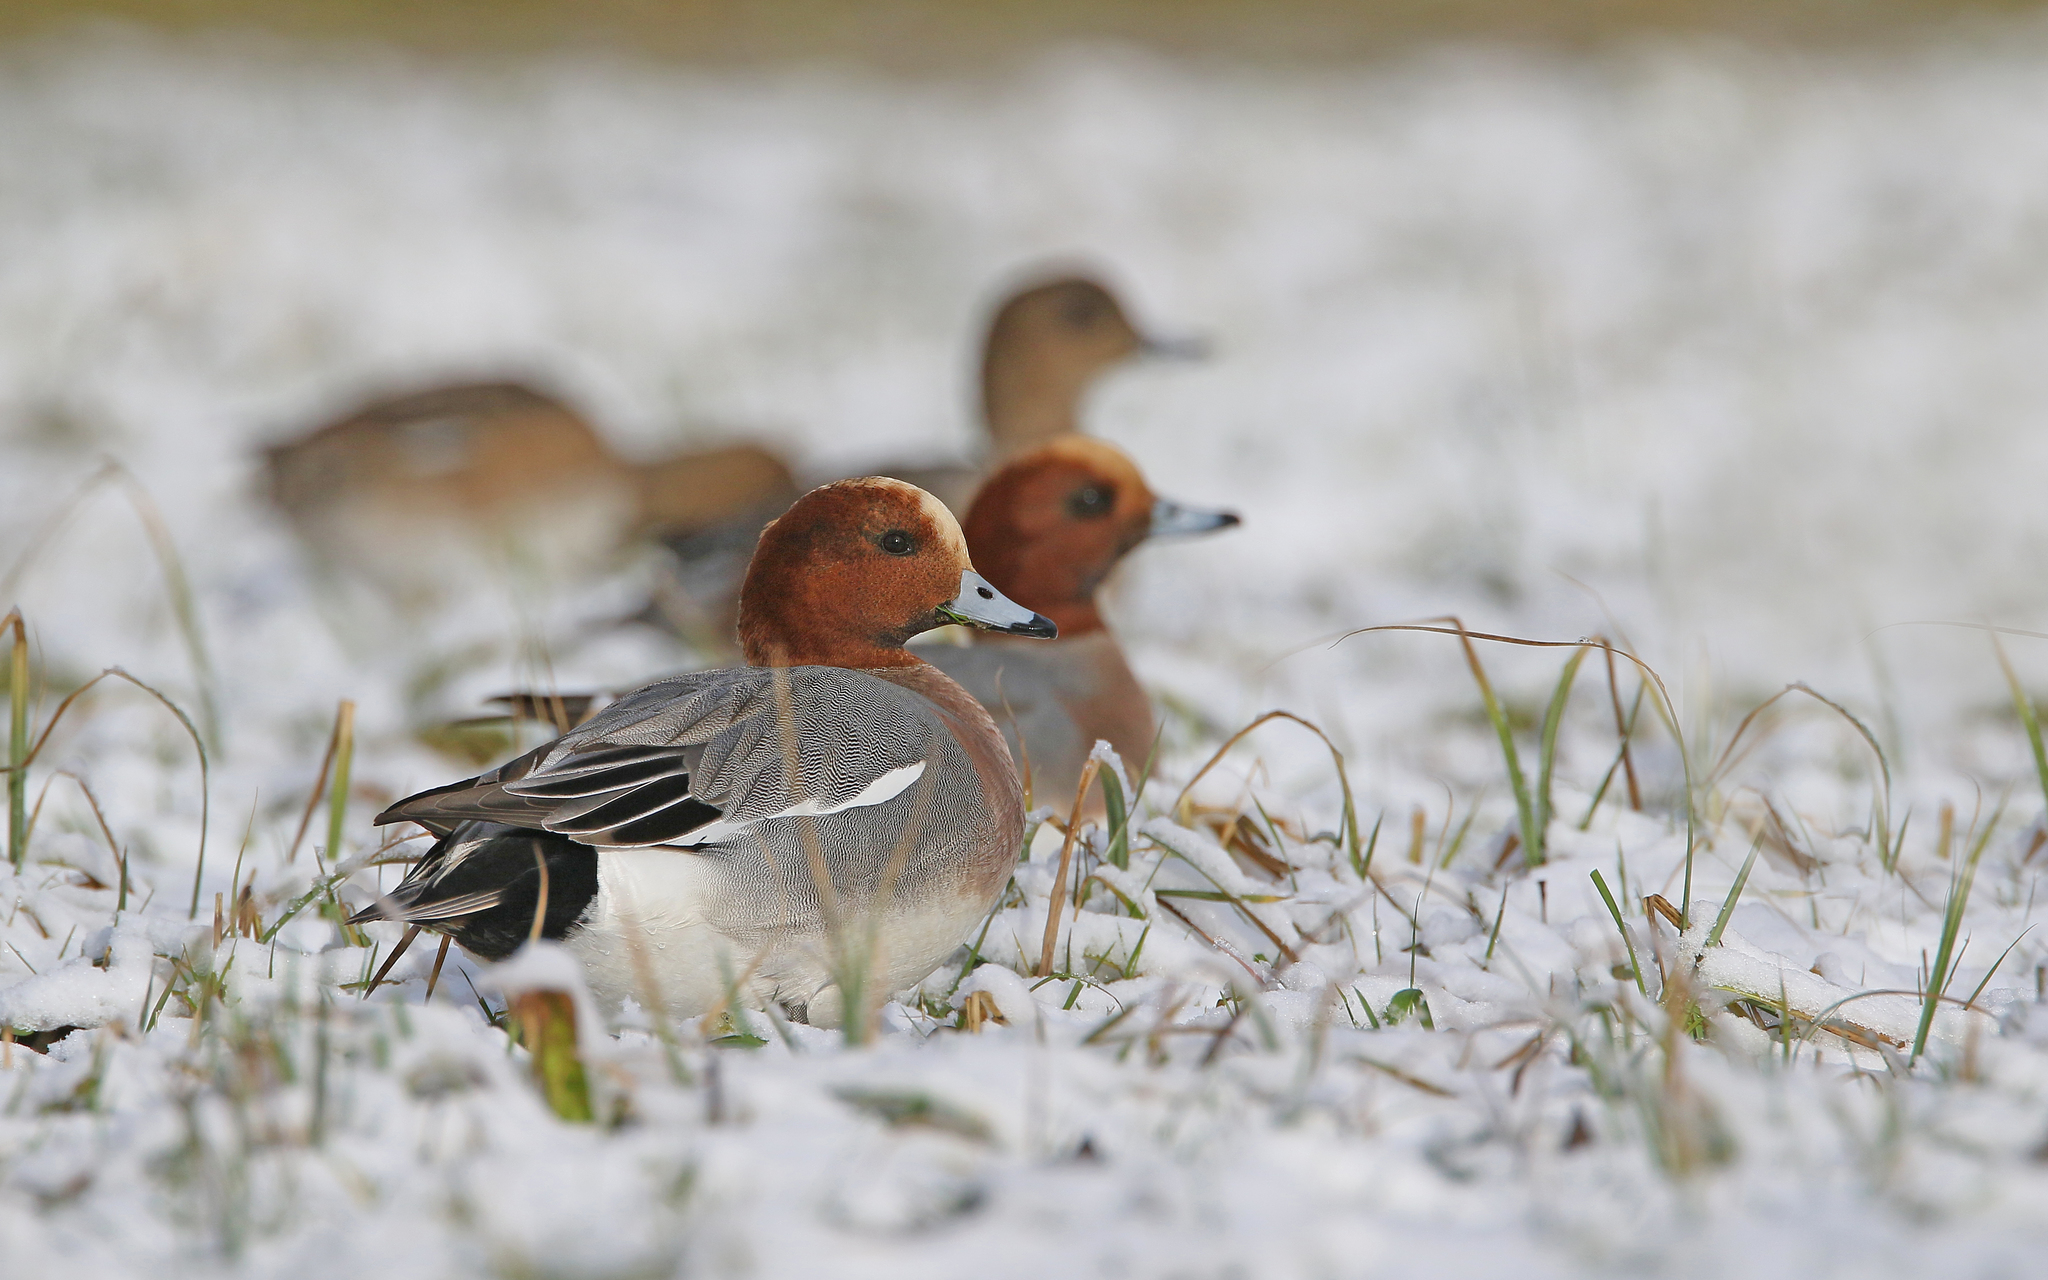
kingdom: Animalia
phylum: Chordata
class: Aves
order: Anseriformes
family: Anatidae
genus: Mareca
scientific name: Mareca penelope
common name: Eurasian wigeon
